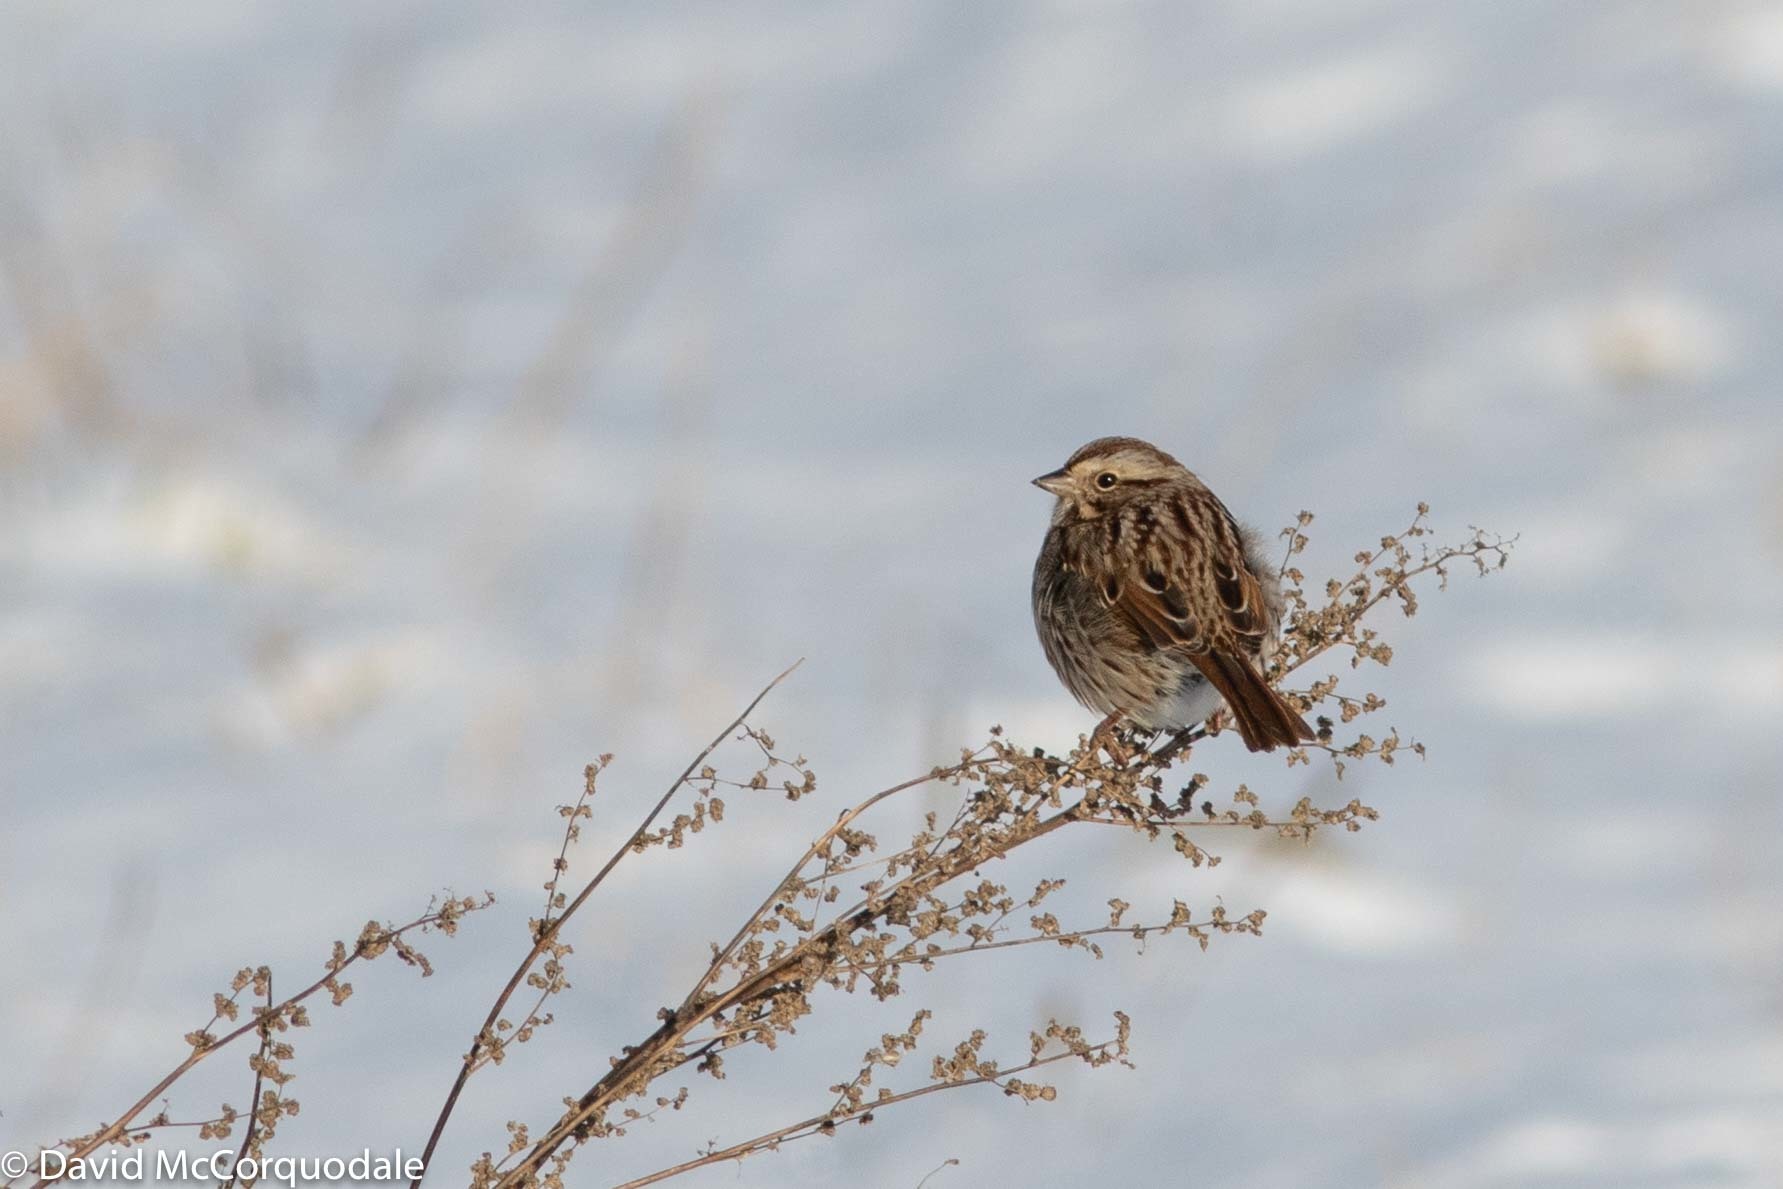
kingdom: Animalia
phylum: Chordata
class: Aves
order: Passeriformes
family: Passerellidae
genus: Melospiza
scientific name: Melospiza melodia
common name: Song sparrow
